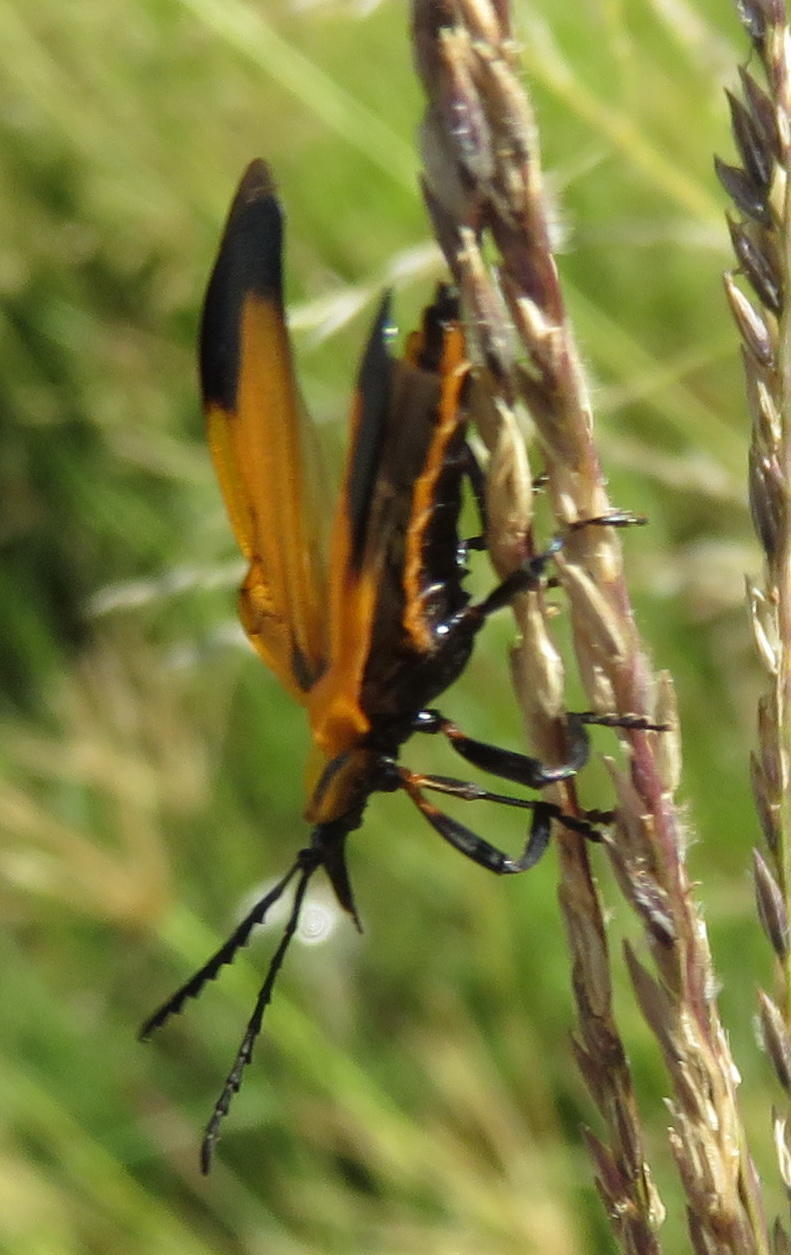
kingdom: Animalia
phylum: Arthropoda
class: Insecta
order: Coleoptera
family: Lycidae
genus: Lycus
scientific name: Lycus
